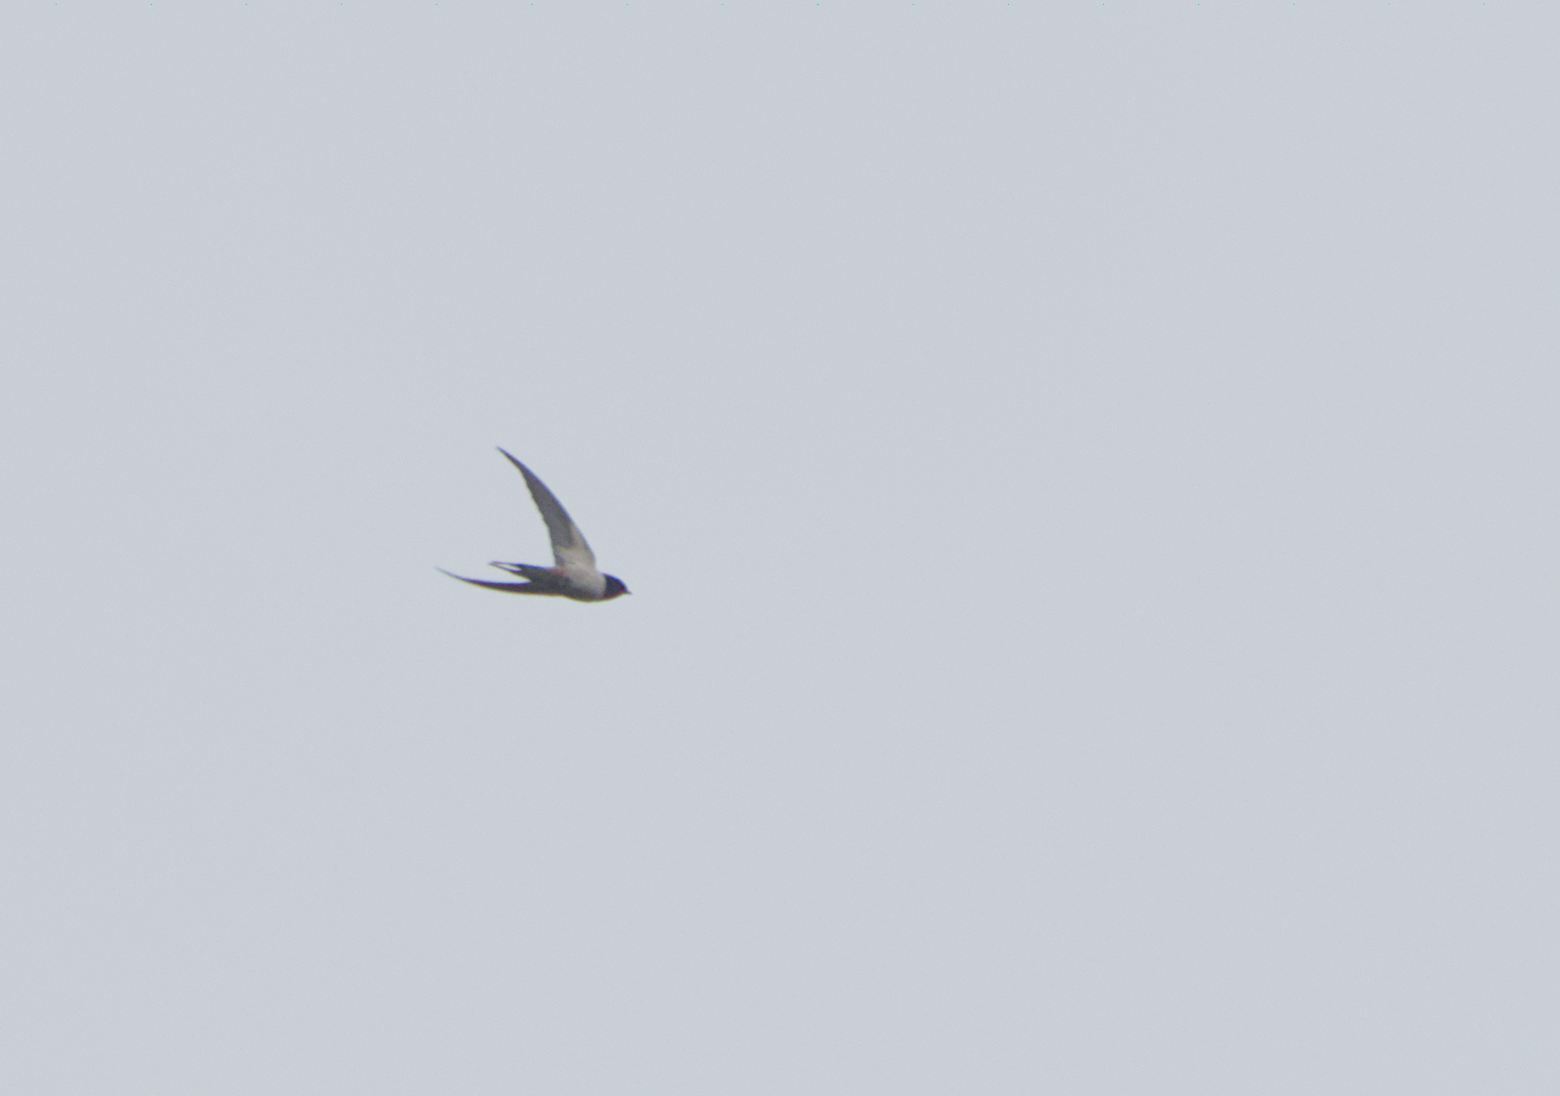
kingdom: Animalia
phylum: Chordata
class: Aves
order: Passeriformes
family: Hirundinidae
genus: Hirundo
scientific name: Hirundo rustica
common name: Barn swallow
